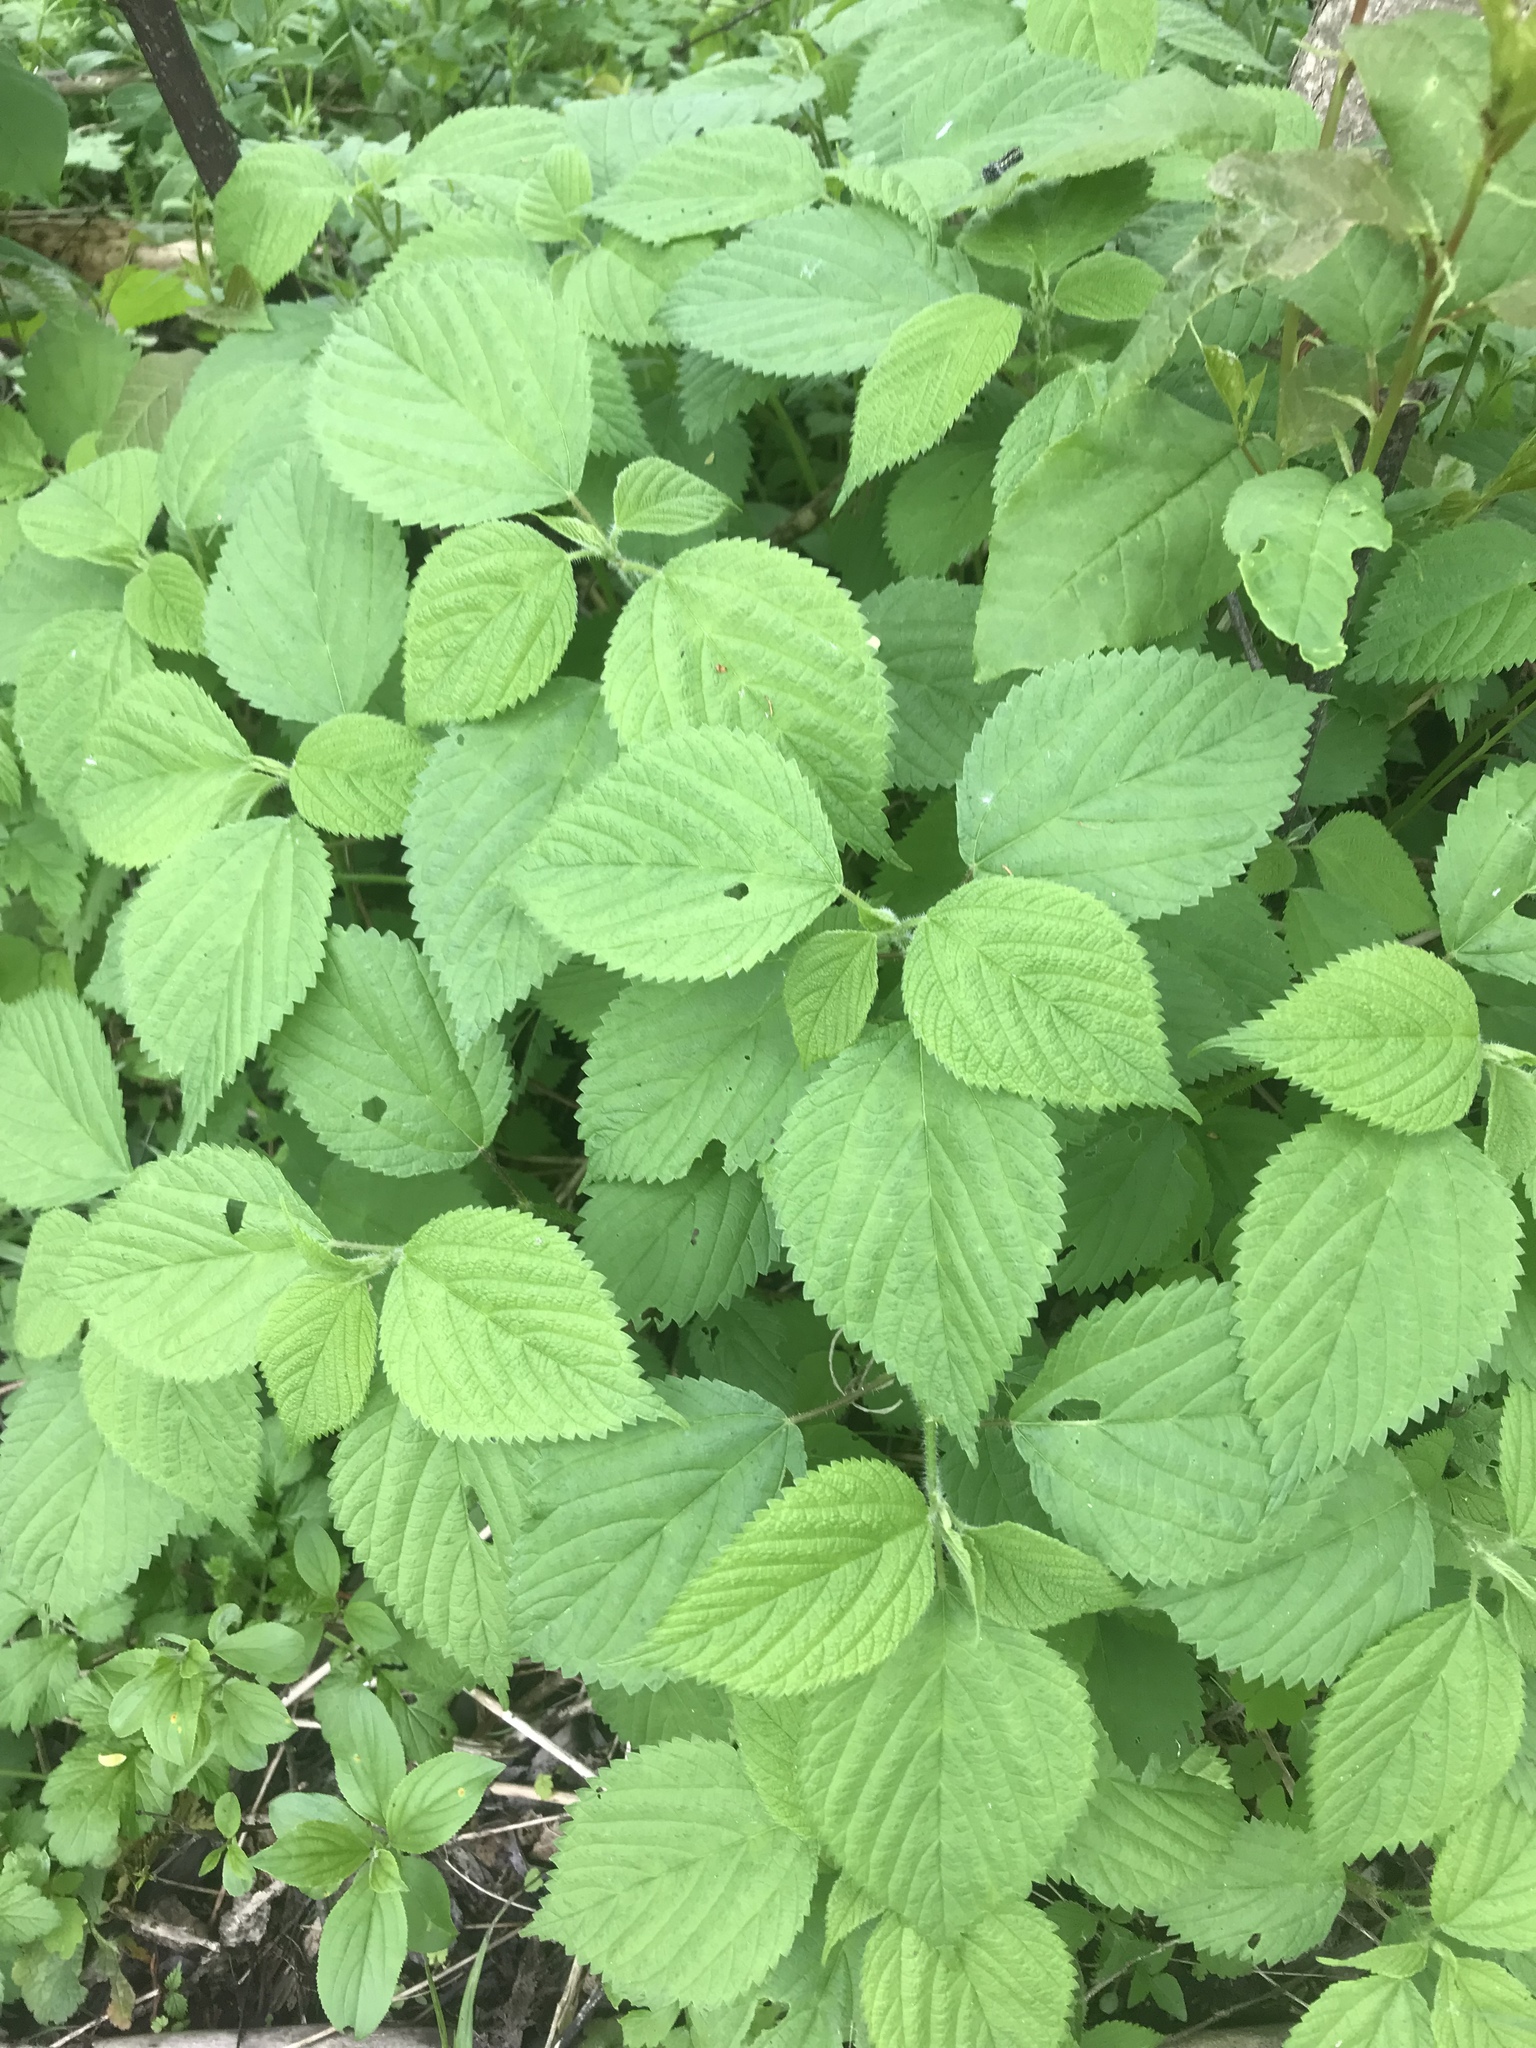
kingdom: Plantae
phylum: Tracheophyta
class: Magnoliopsida
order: Rosales
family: Urticaceae
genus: Laportea
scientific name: Laportea canadensis
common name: Canada nettle
